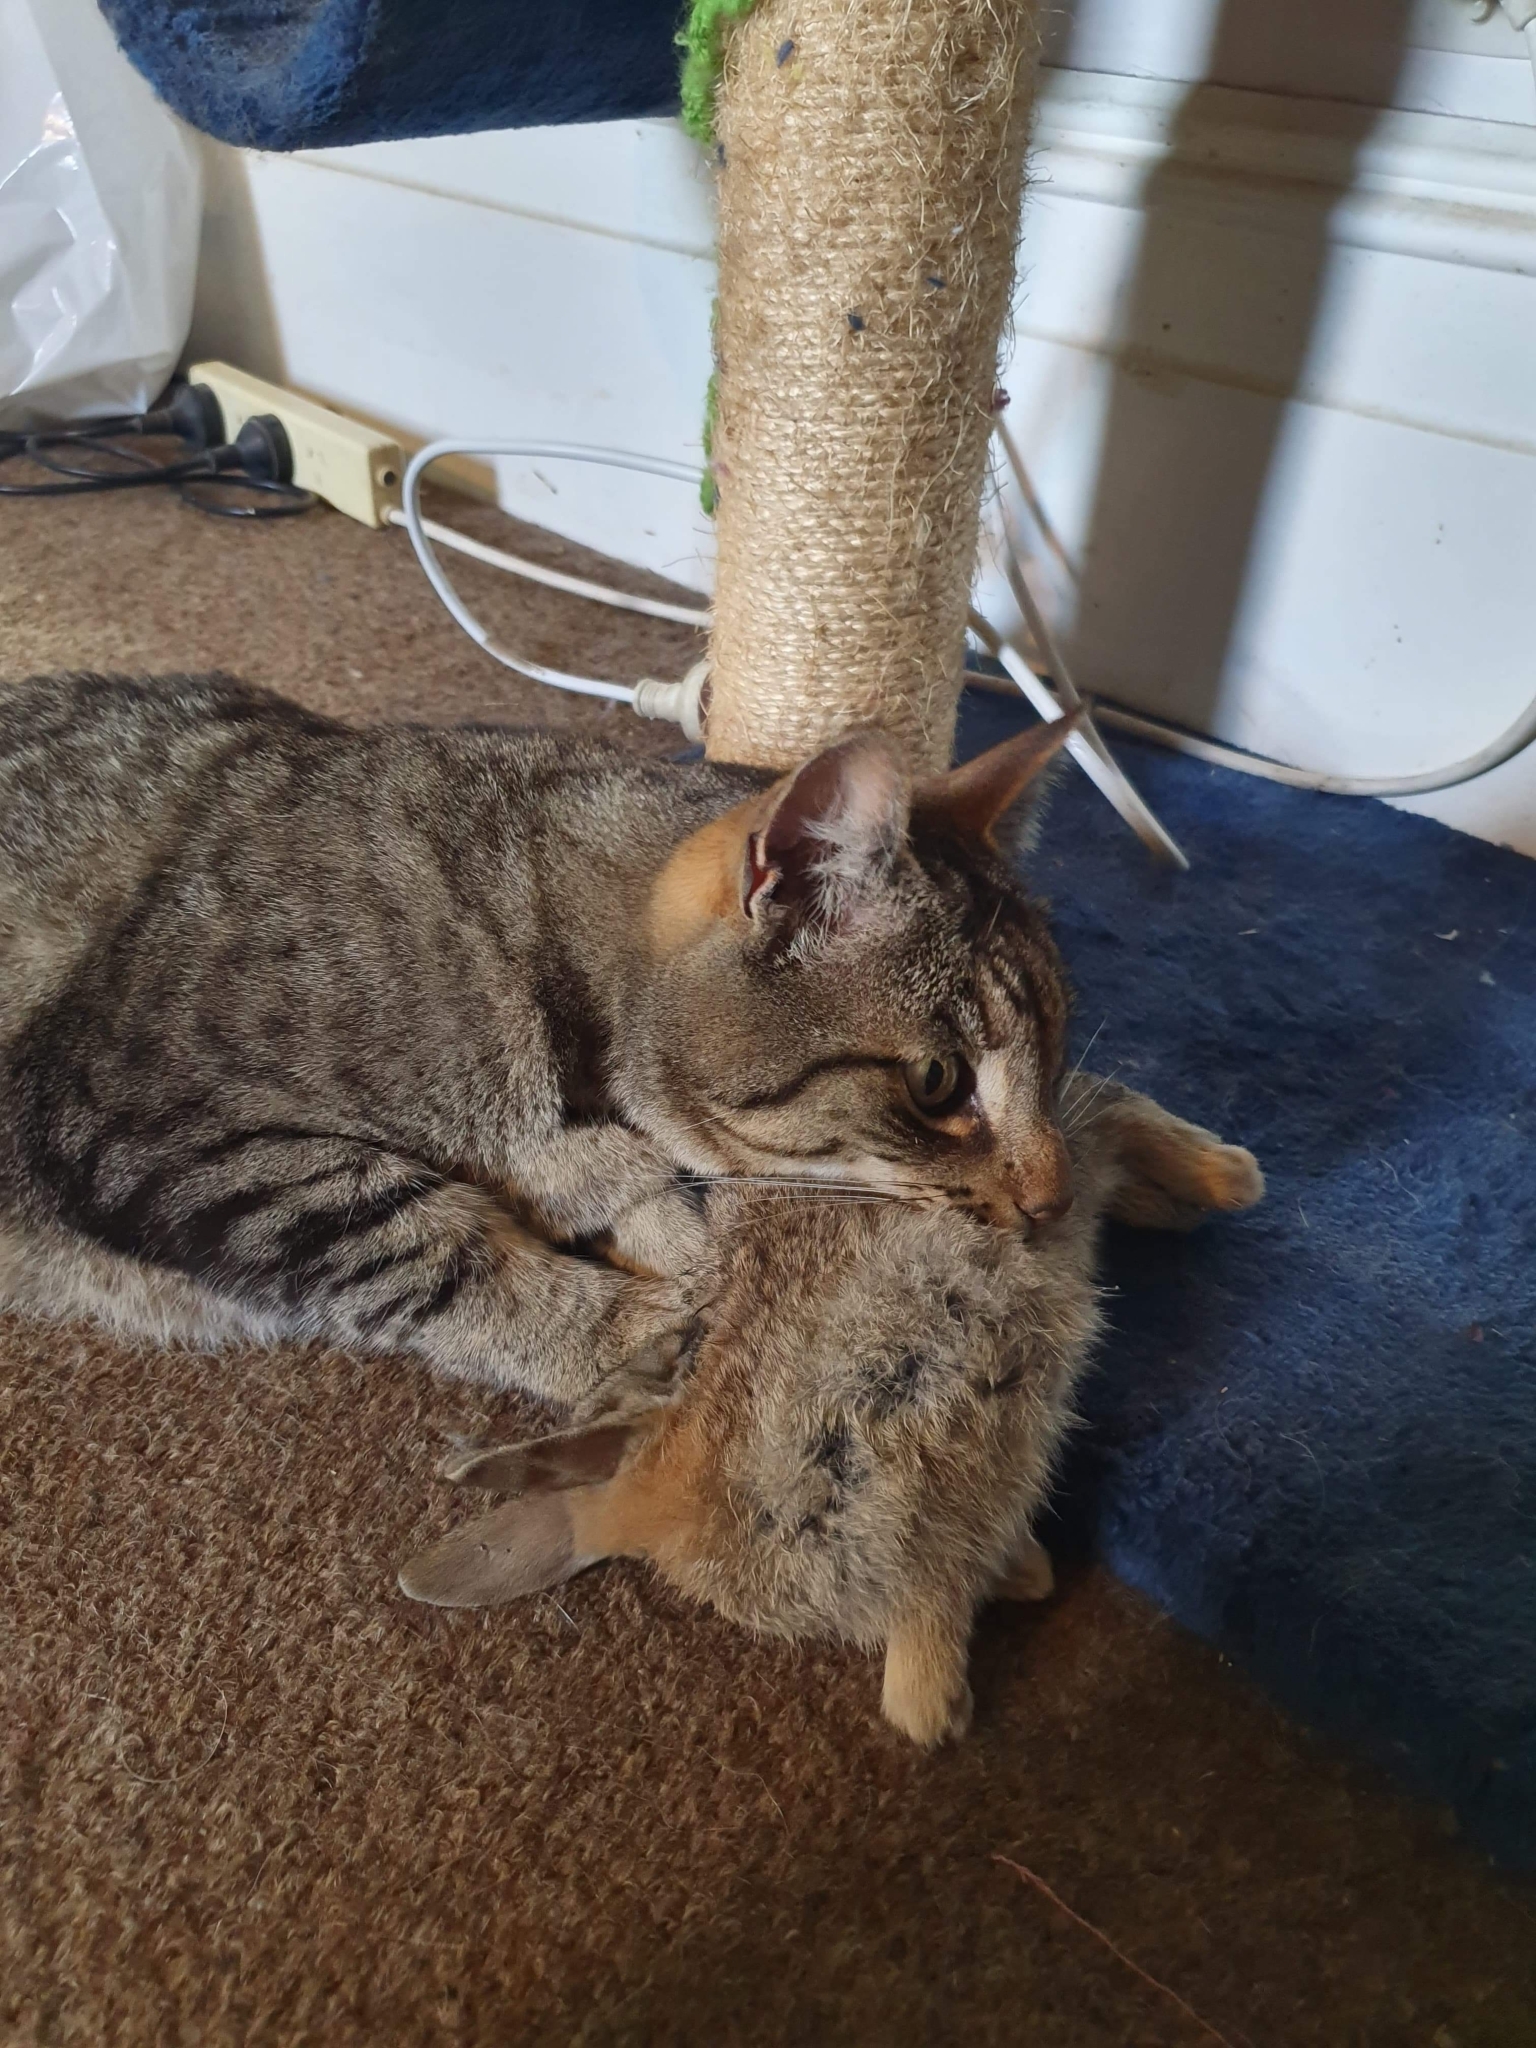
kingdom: Animalia
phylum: Chordata
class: Mammalia
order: Lagomorpha
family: Leporidae
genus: Oryctolagus
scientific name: Oryctolagus cuniculus
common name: European rabbit
